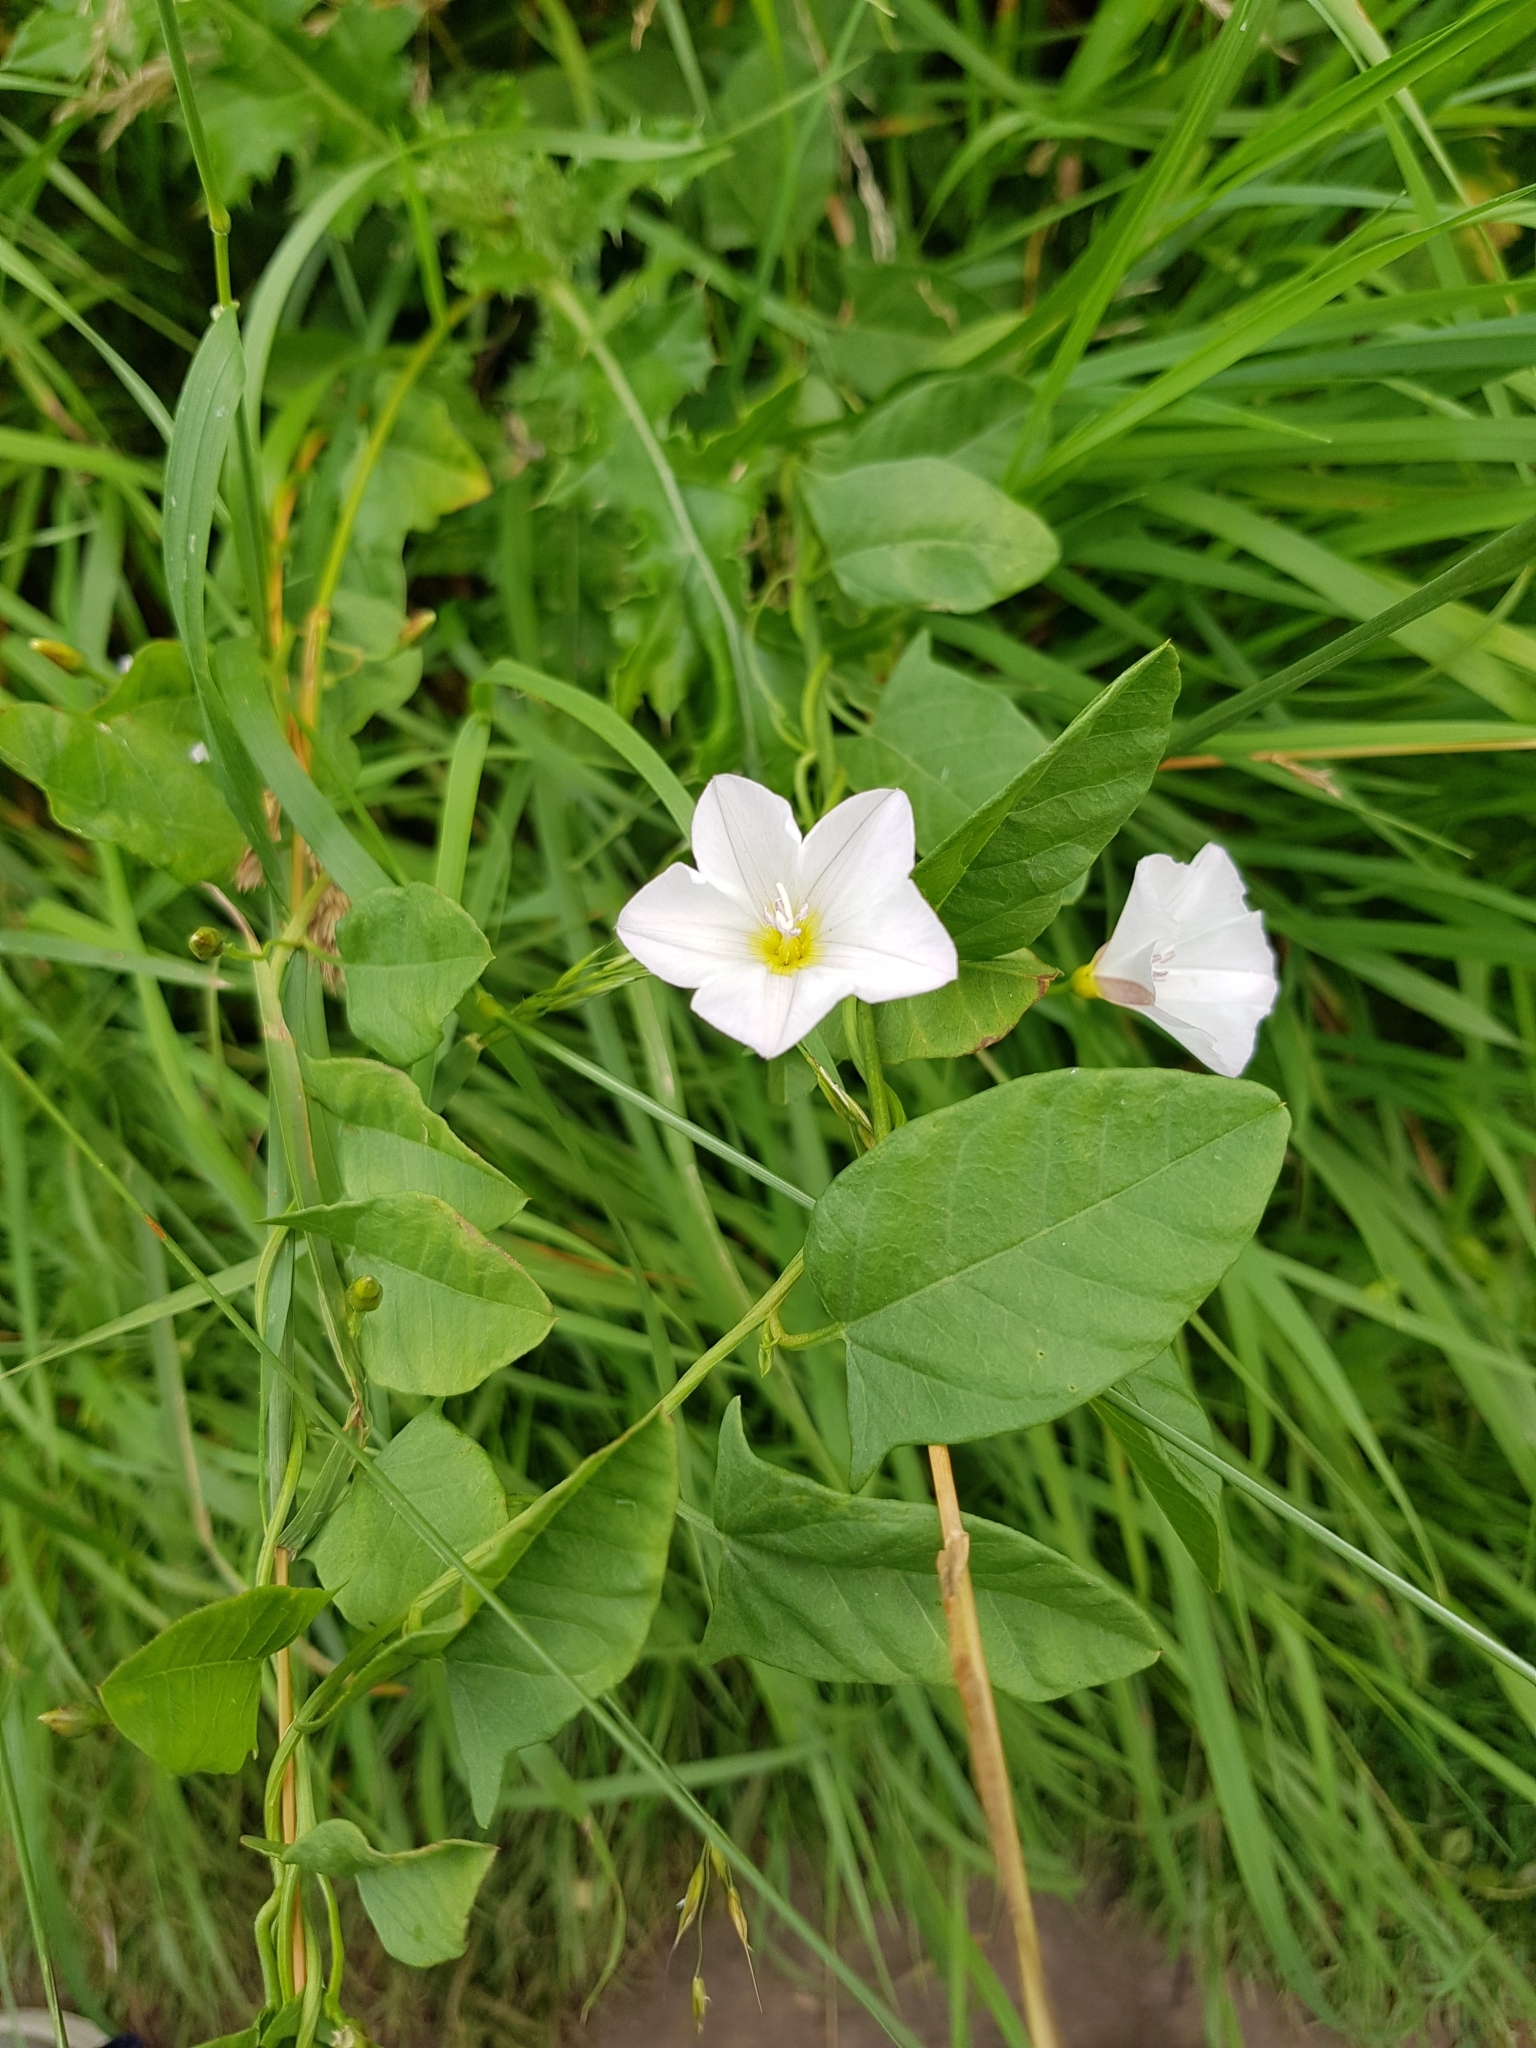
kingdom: Plantae
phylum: Tracheophyta
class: Magnoliopsida
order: Solanales
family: Convolvulaceae
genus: Convolvulus
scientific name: Convolvulus arvensis
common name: Field bindweed
